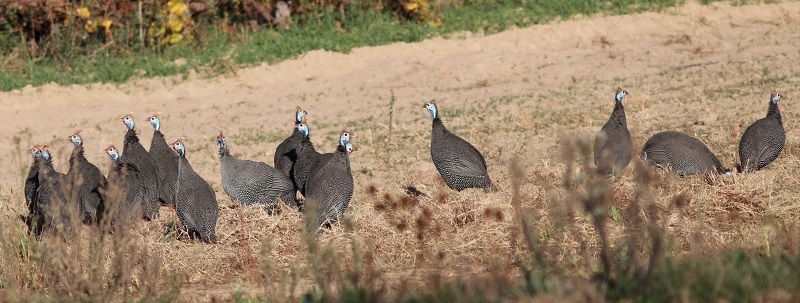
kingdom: Animalia
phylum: Chordata
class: Aves
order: Galliformes
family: Numididae
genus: Numida
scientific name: Numida meleagris
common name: Helmeted guineafowl
